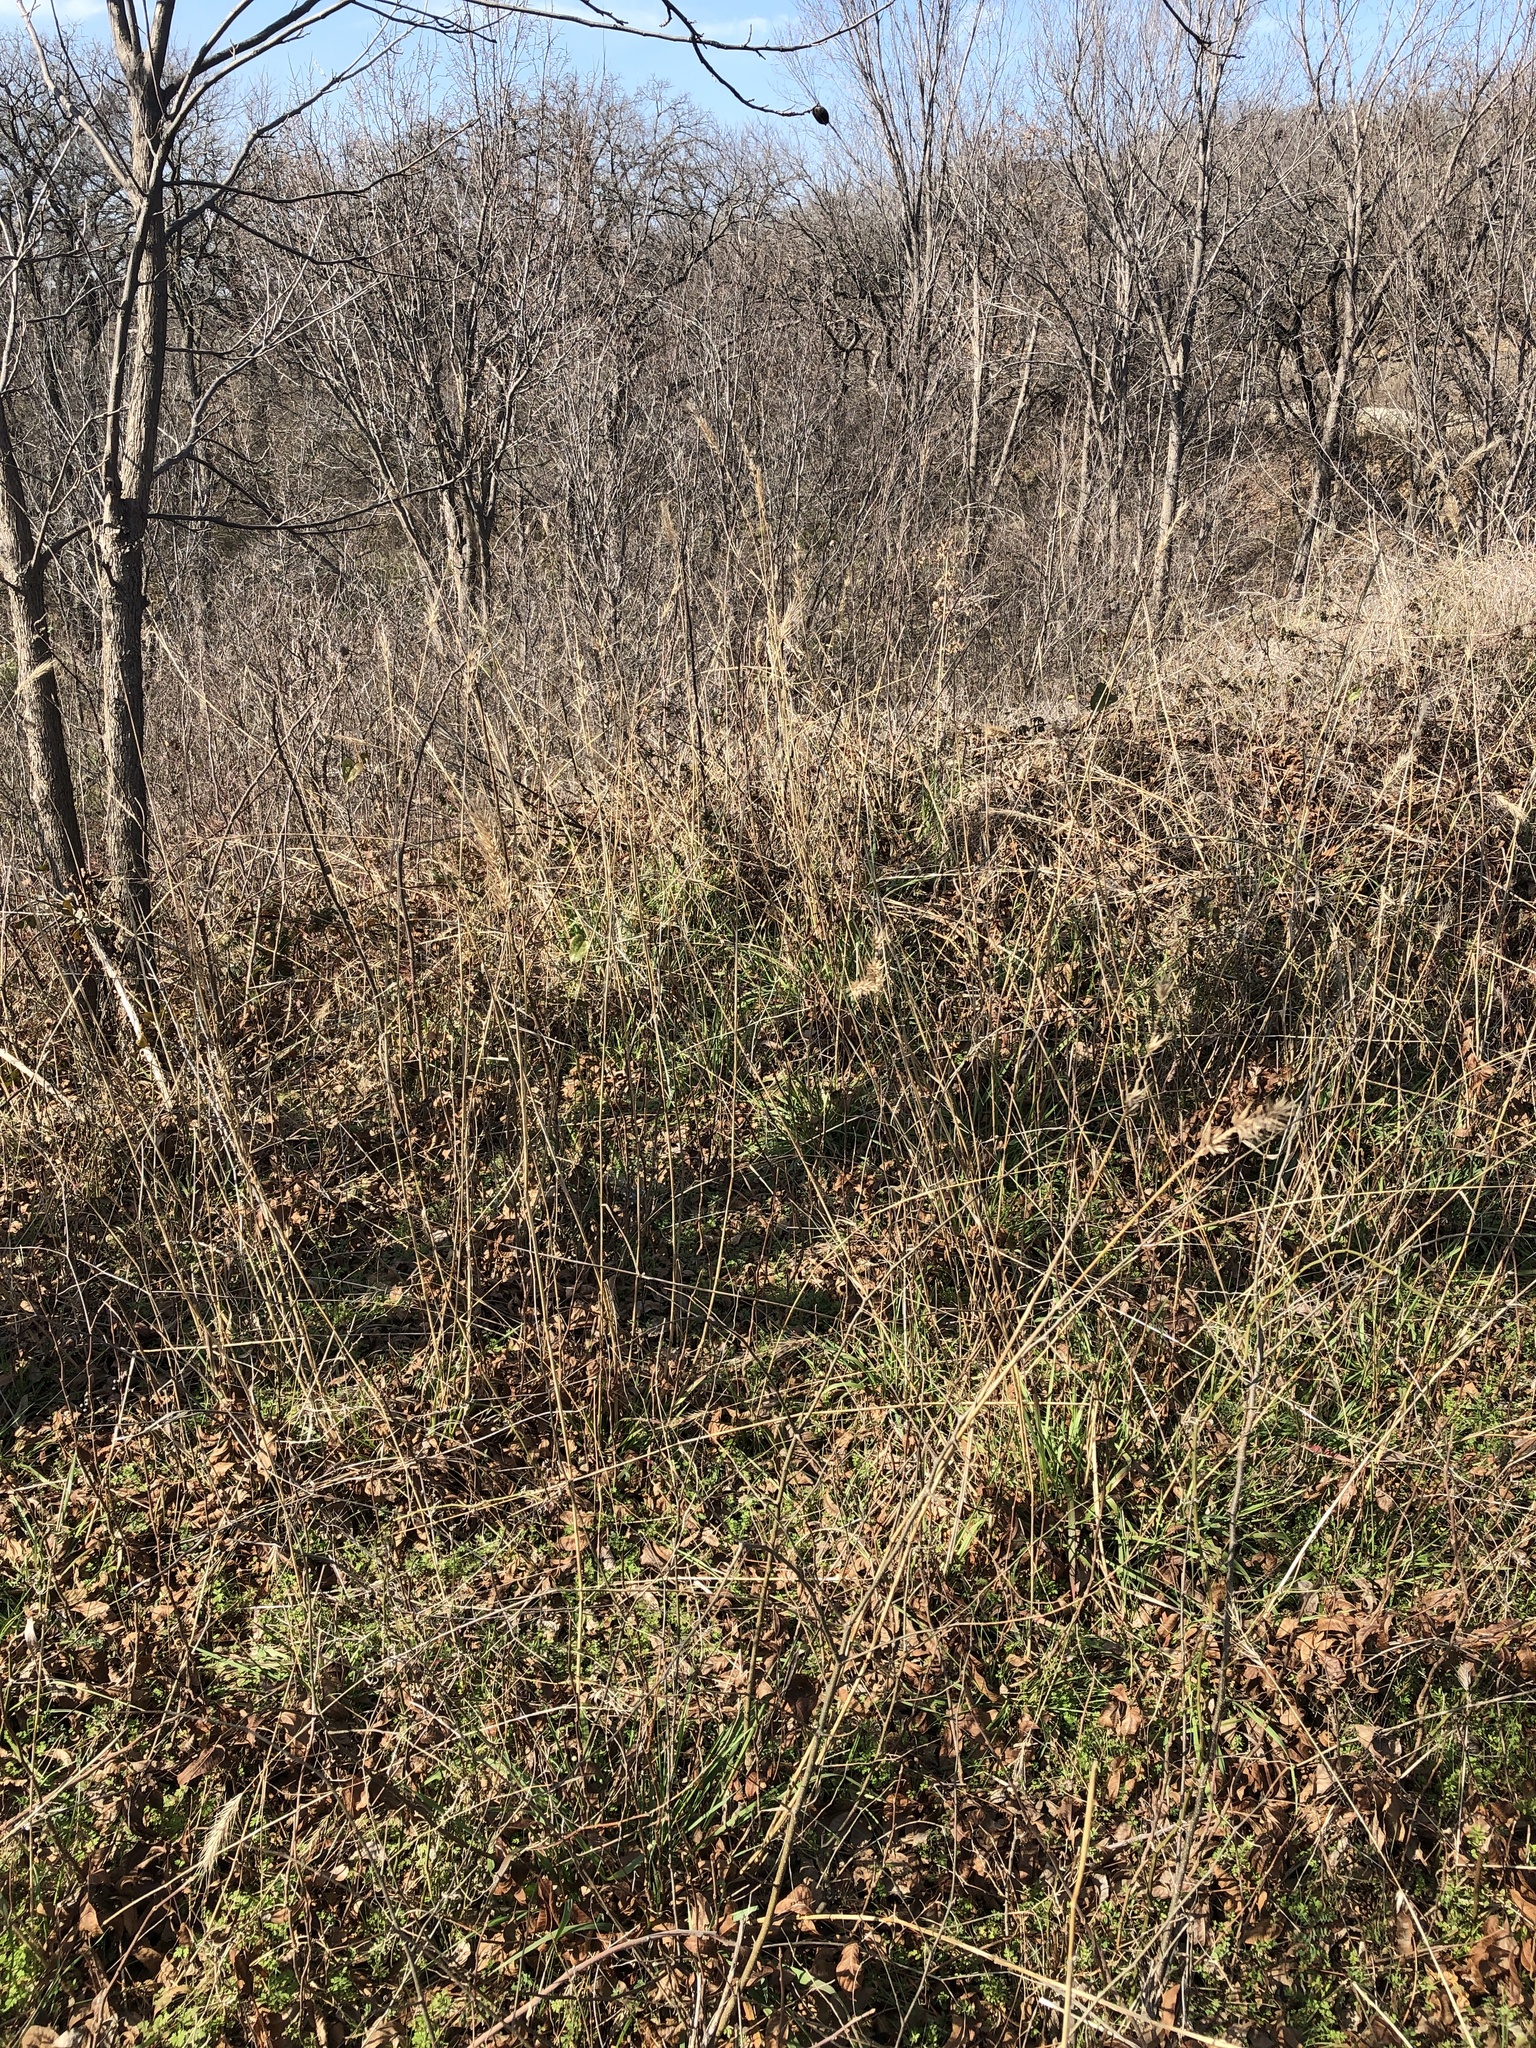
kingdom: Plantae
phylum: Tracheophyta
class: Liliopsida
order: Poales
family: Poaceae
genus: Elymus
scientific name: Elymus canadensis
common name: Canada wild rye
